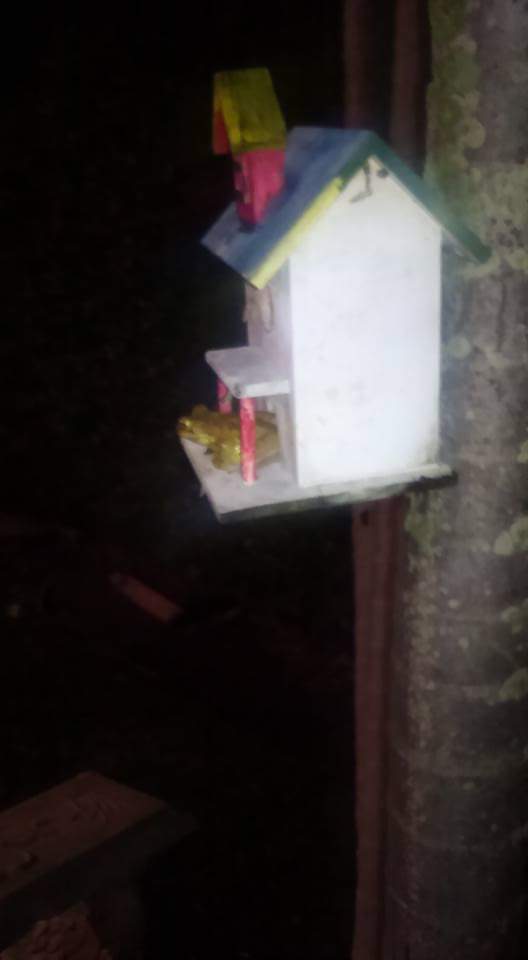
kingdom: Animalia
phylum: Chordata
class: Amphibia
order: Anura
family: Hylidae
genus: Osteopilus
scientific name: Osteopilus septentrionalis
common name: Cuban treefrog
